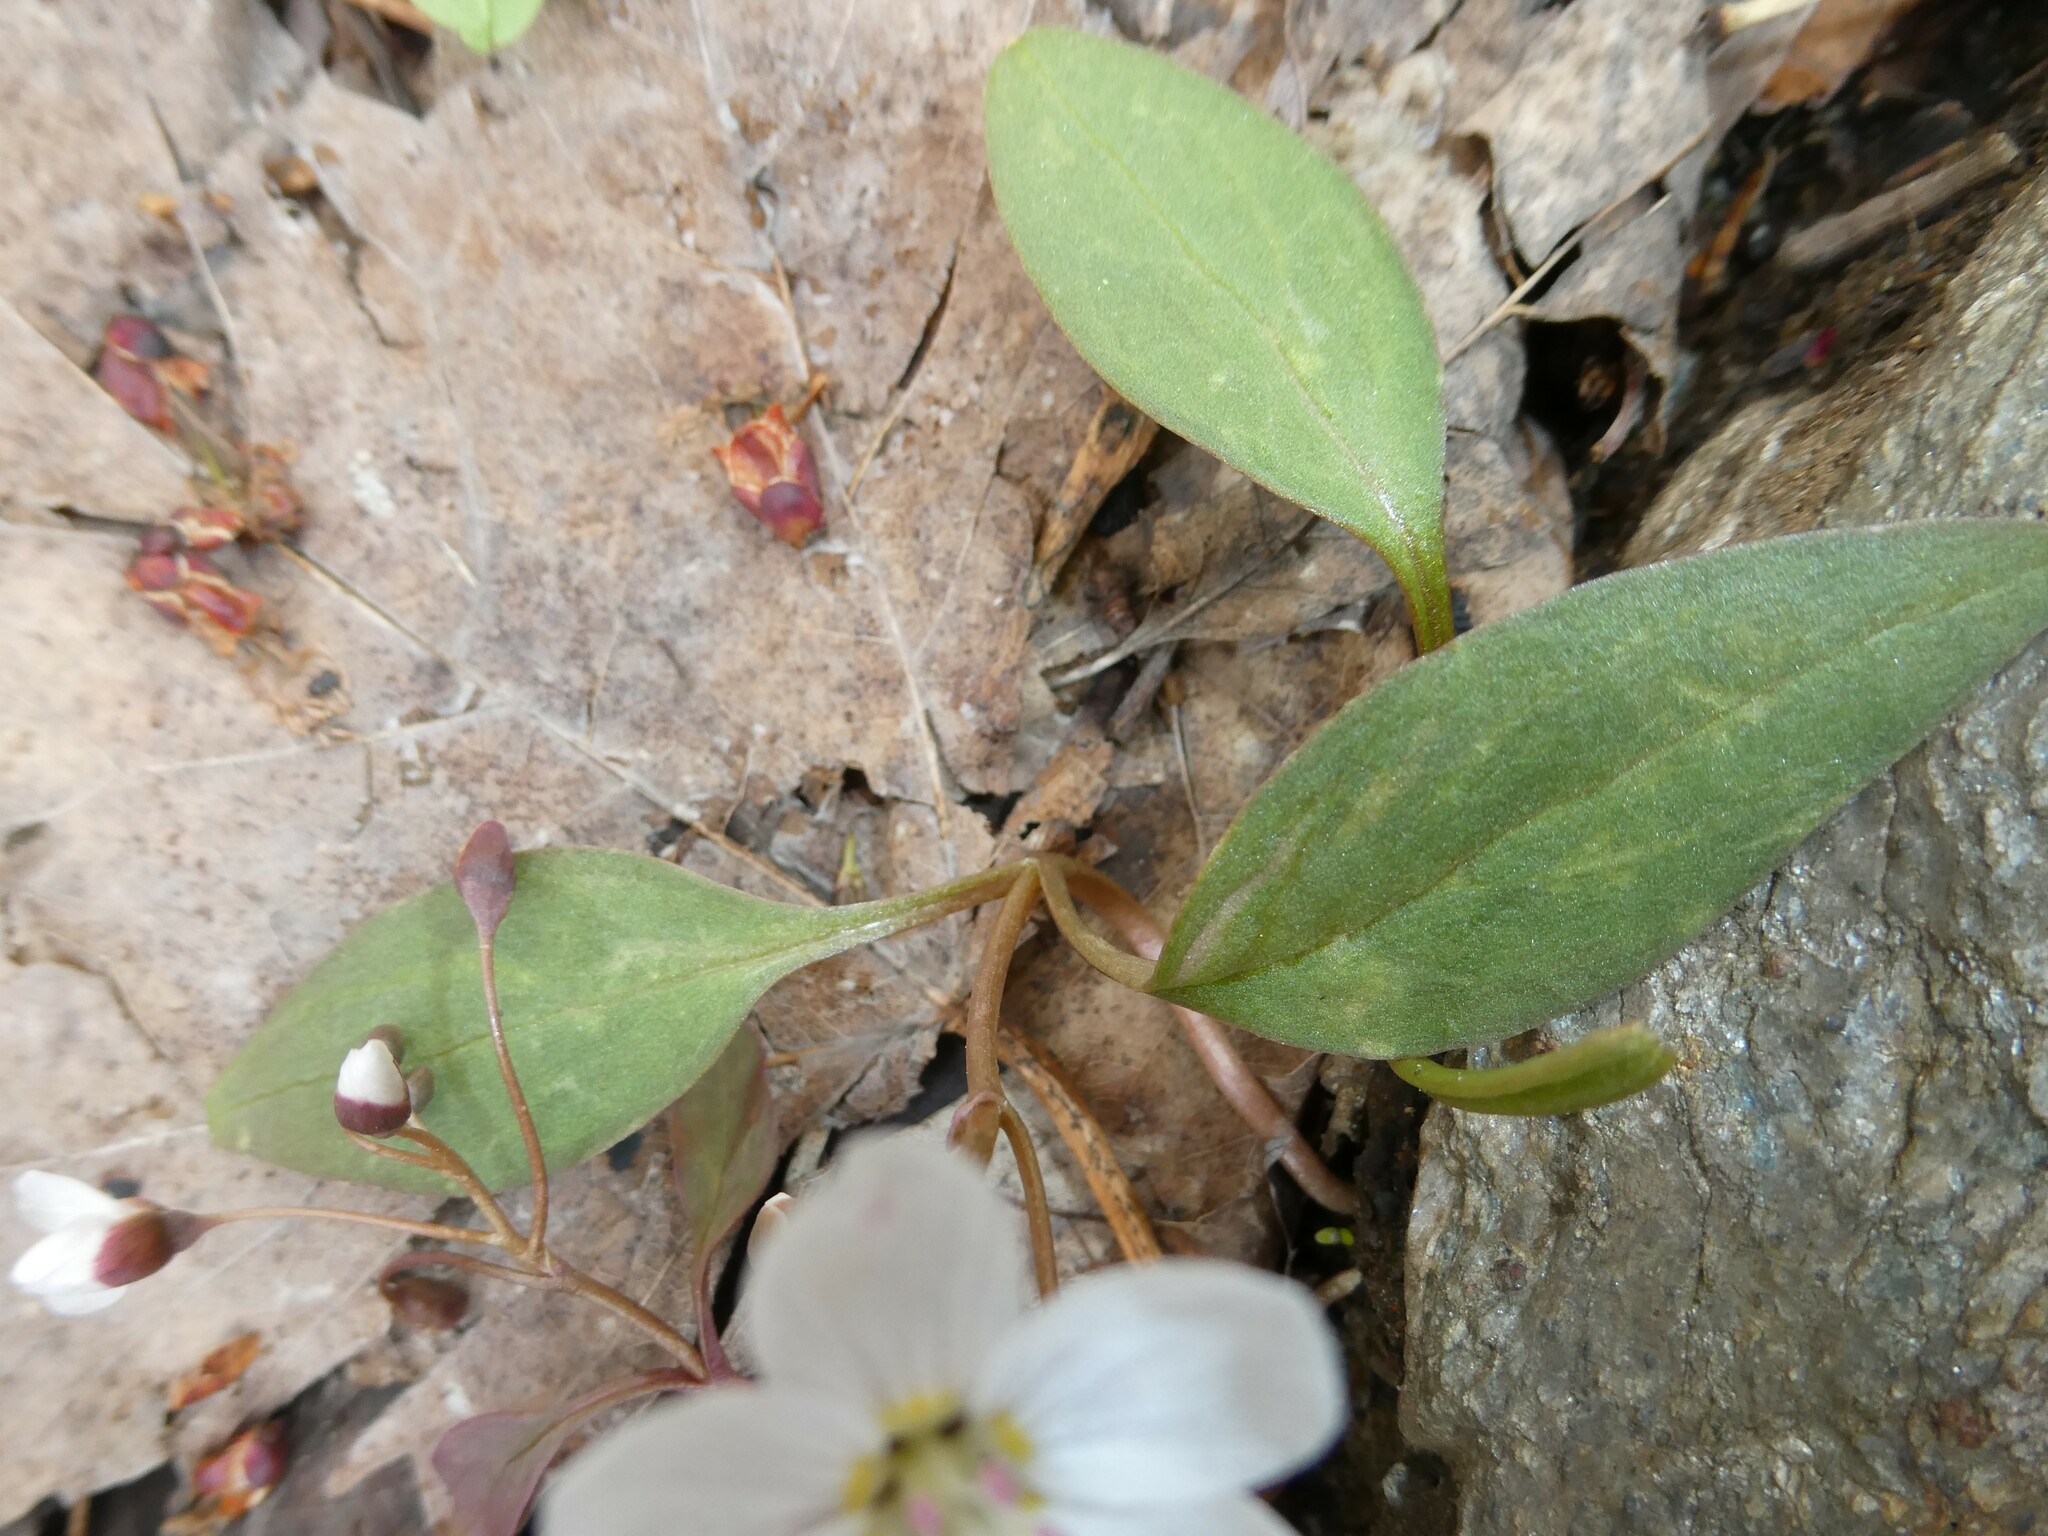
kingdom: Plantae
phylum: Tracheophyta
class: Magnoliopsida
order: Caryophyllales
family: Montiaceae
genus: Claytonia
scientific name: Claytonia caroliniana
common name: Carolina spring beauty
